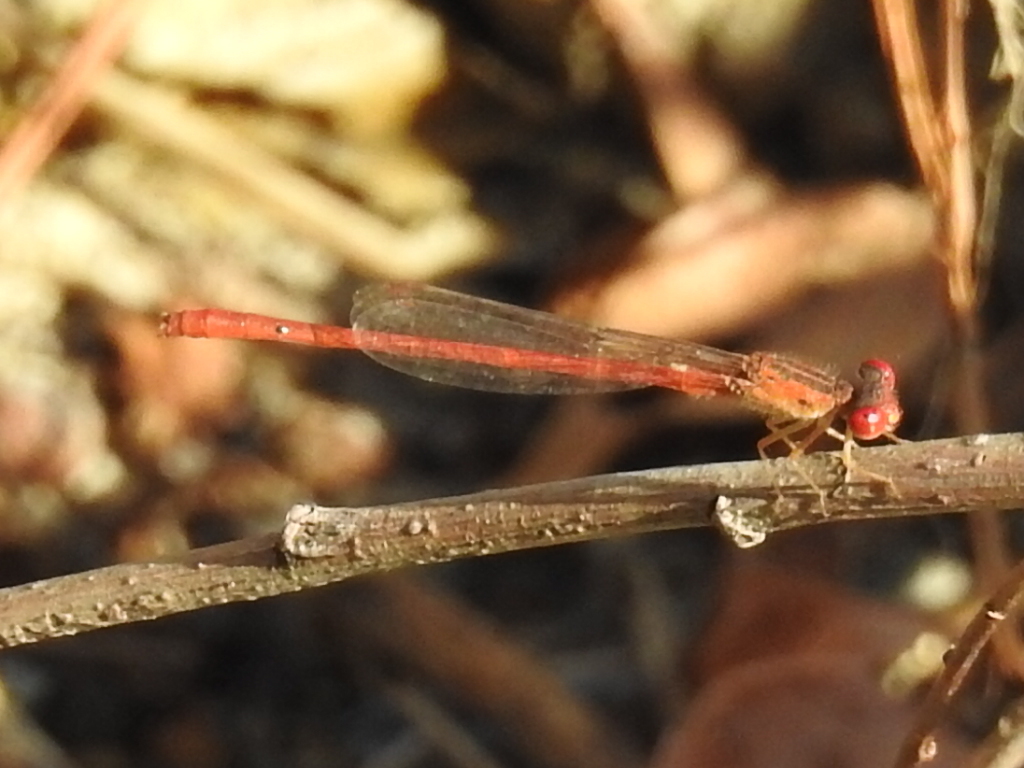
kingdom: Animalia
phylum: Arthropoda
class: Insecta
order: Odonata
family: Coenagrionidae
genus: Telebasis
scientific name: Telebasis salva
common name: Desert firetail
